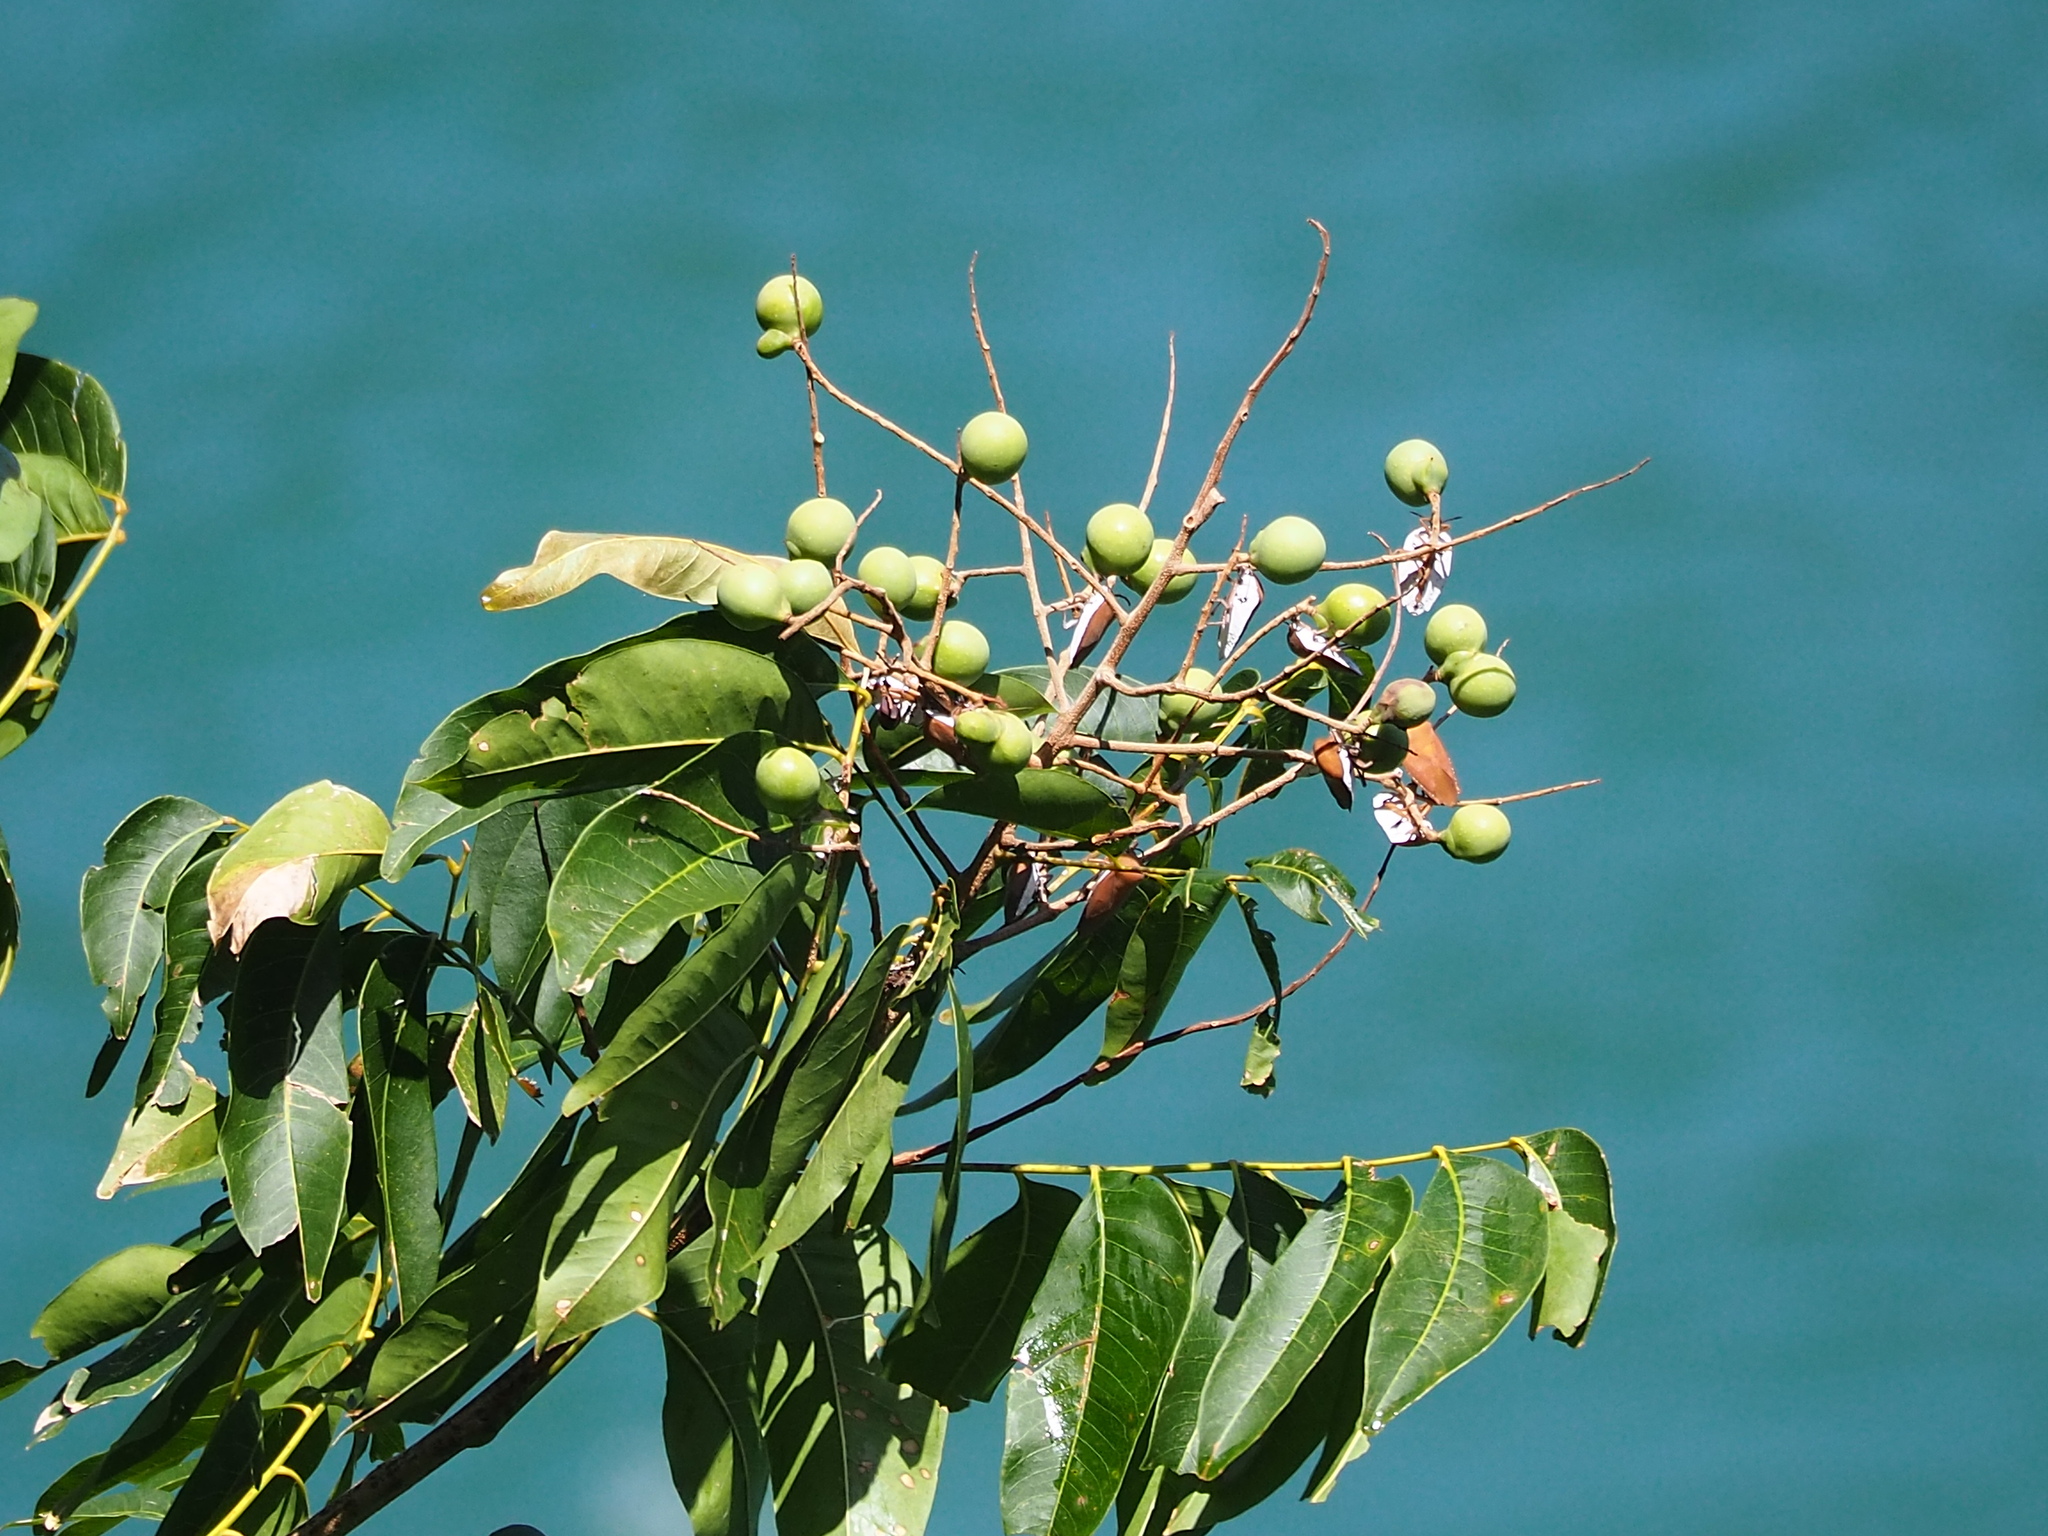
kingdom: Plantae
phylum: Tracheophyta
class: Magnoliopsida
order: Sapindales
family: Sapindaceae
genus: Sapindus
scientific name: Sapindus mukorossi
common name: Chinese soapberry
